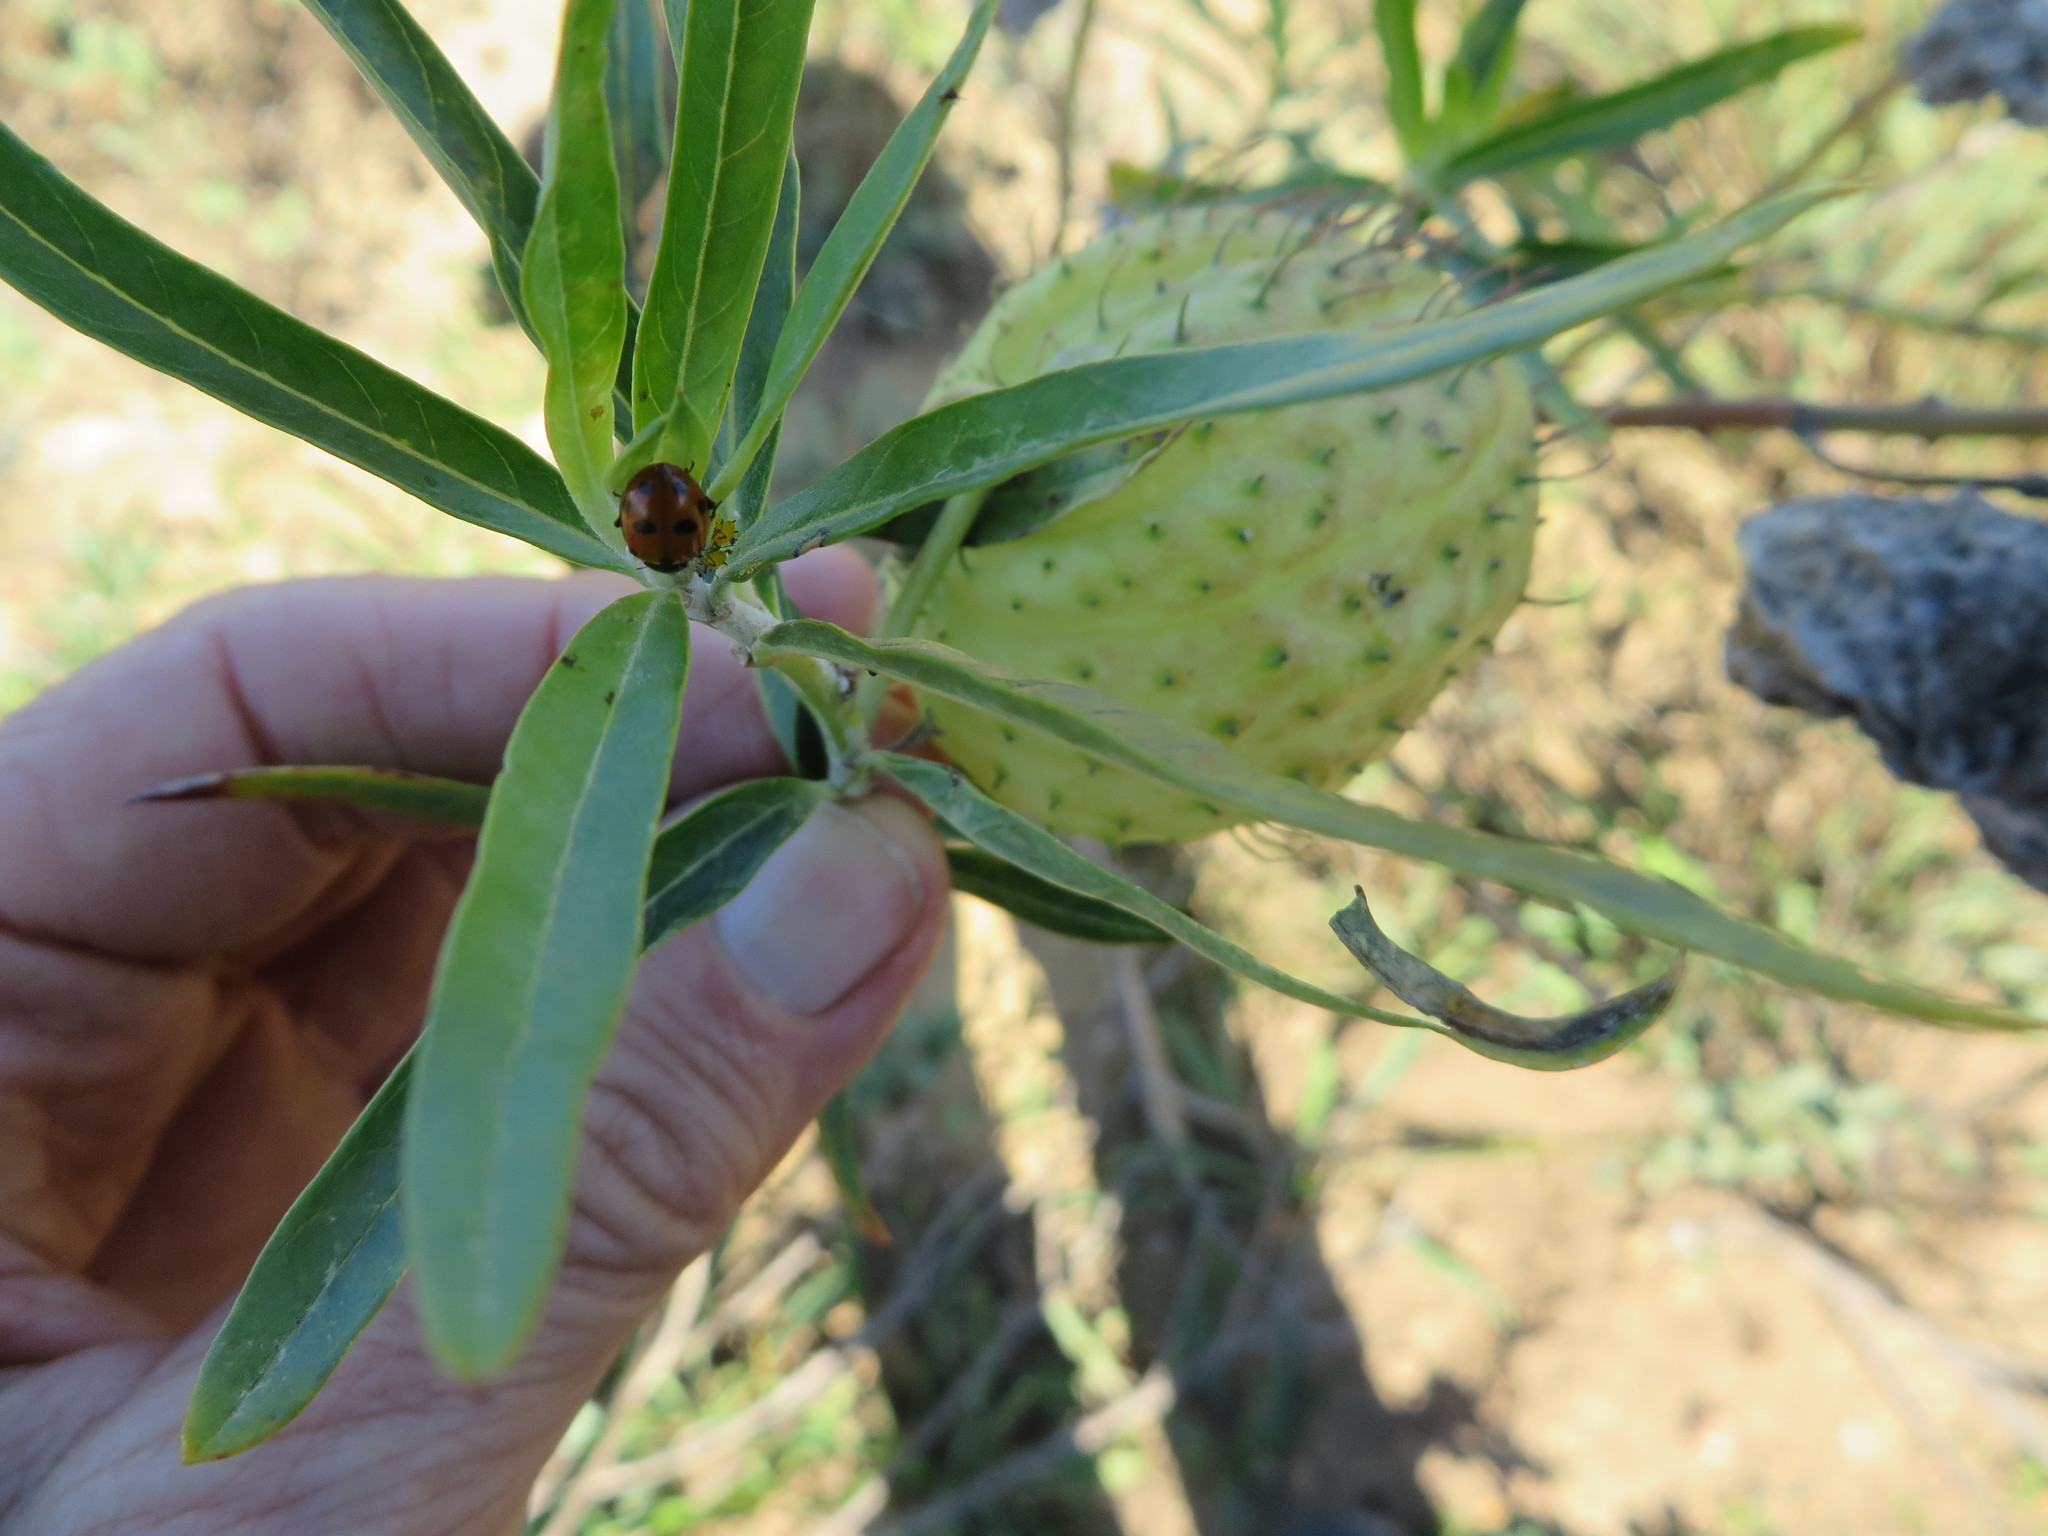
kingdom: Animalia
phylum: Arthropoda
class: Insecta
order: Coleoptera
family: Coccinellidae
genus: Hippodamia
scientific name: Hippodamia variegata
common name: Ladybird beetle
